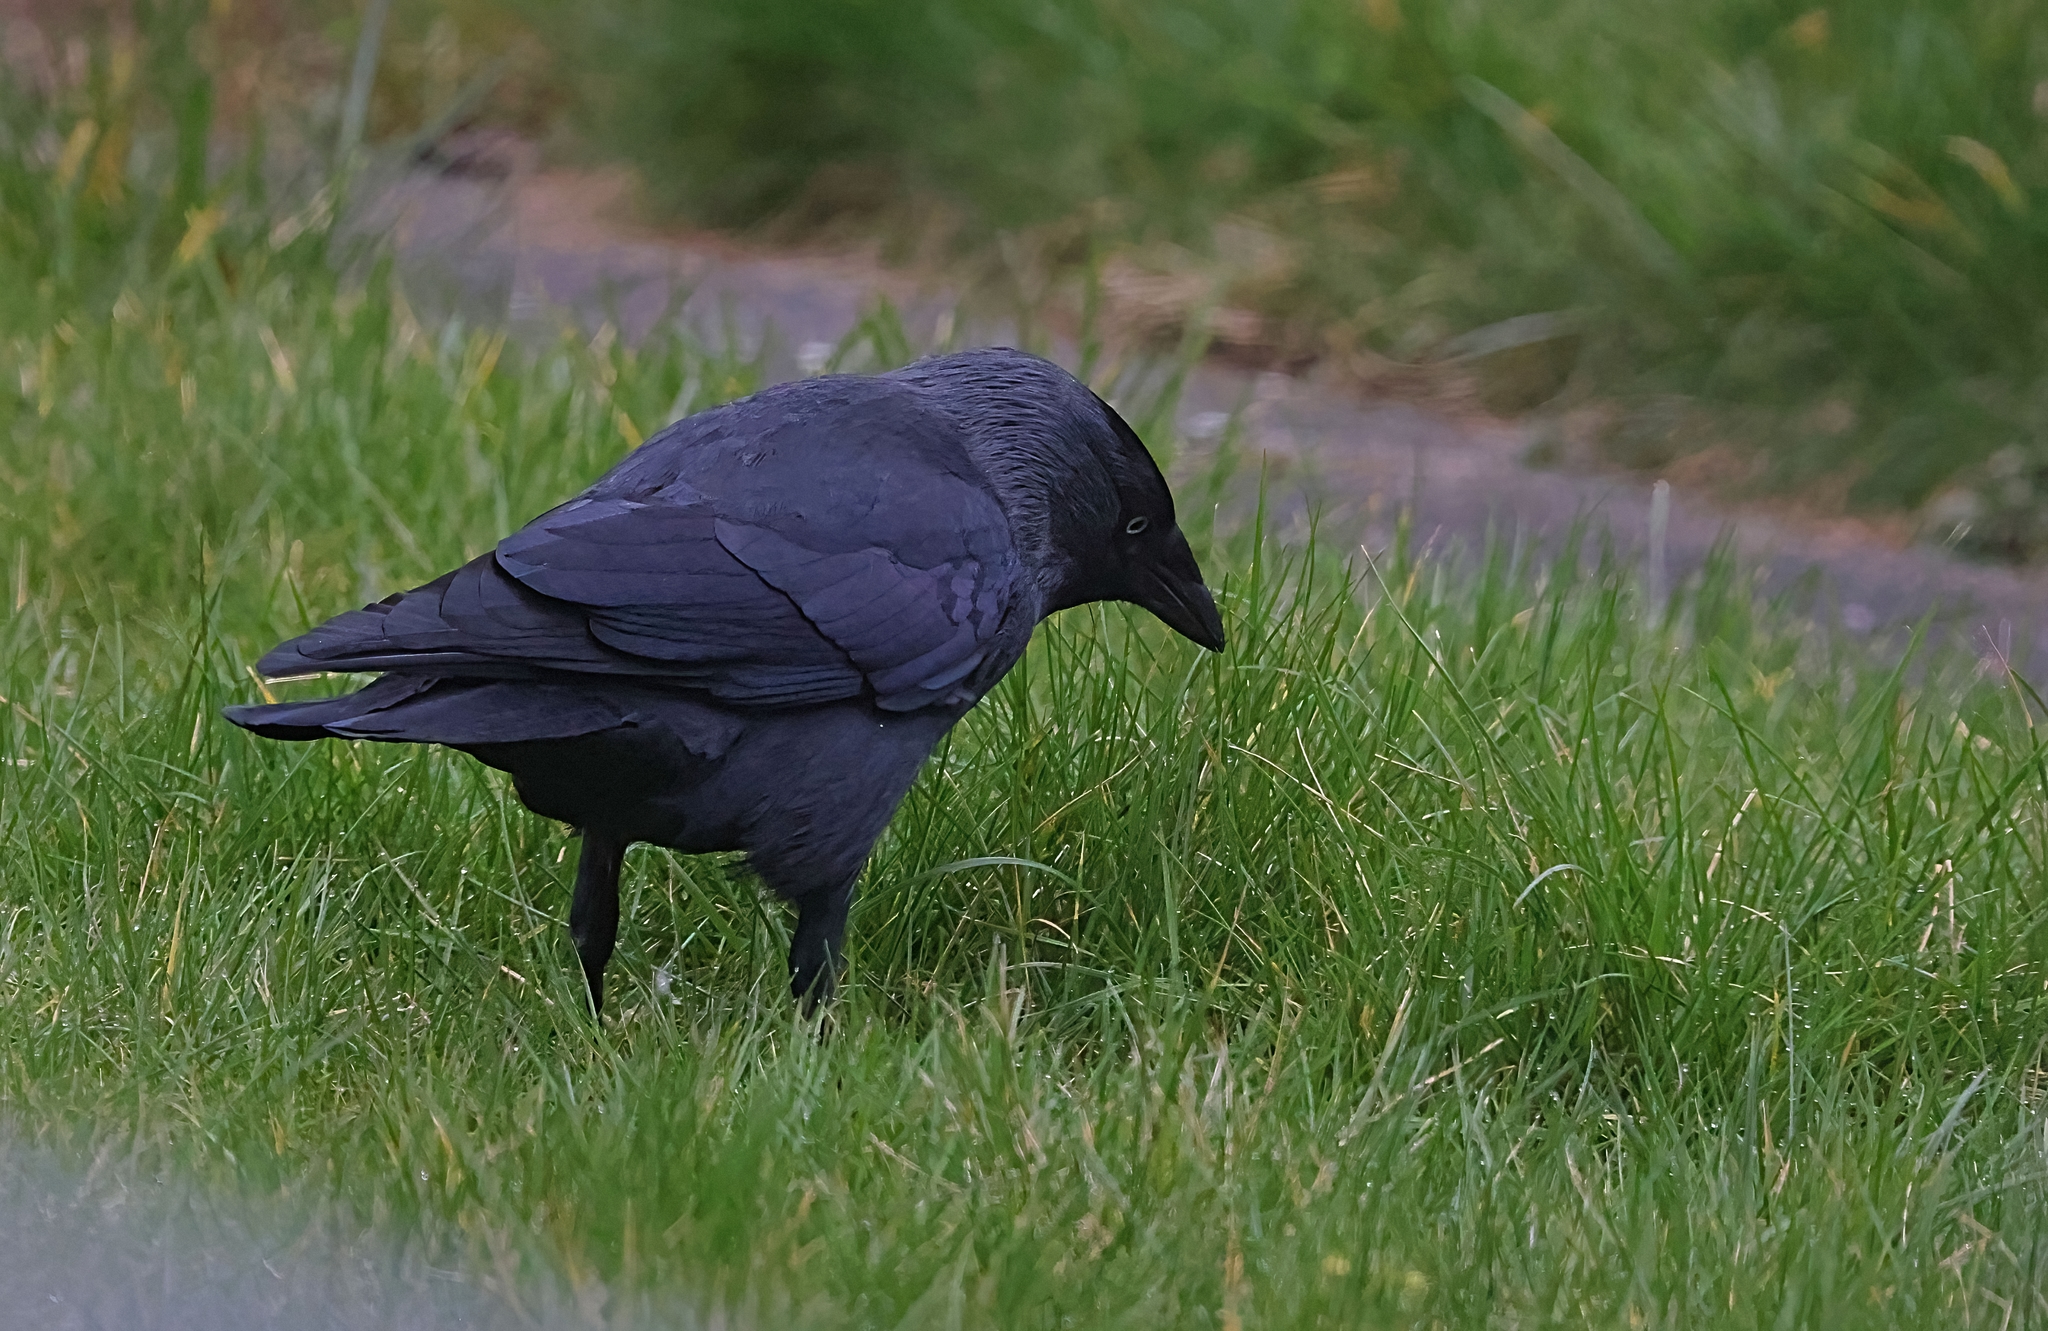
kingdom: Animalia
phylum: Chordata
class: Aves
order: Passeriformes
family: Corvidae
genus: Coloeus
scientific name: Coloeus monedula
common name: Western jackdaw
